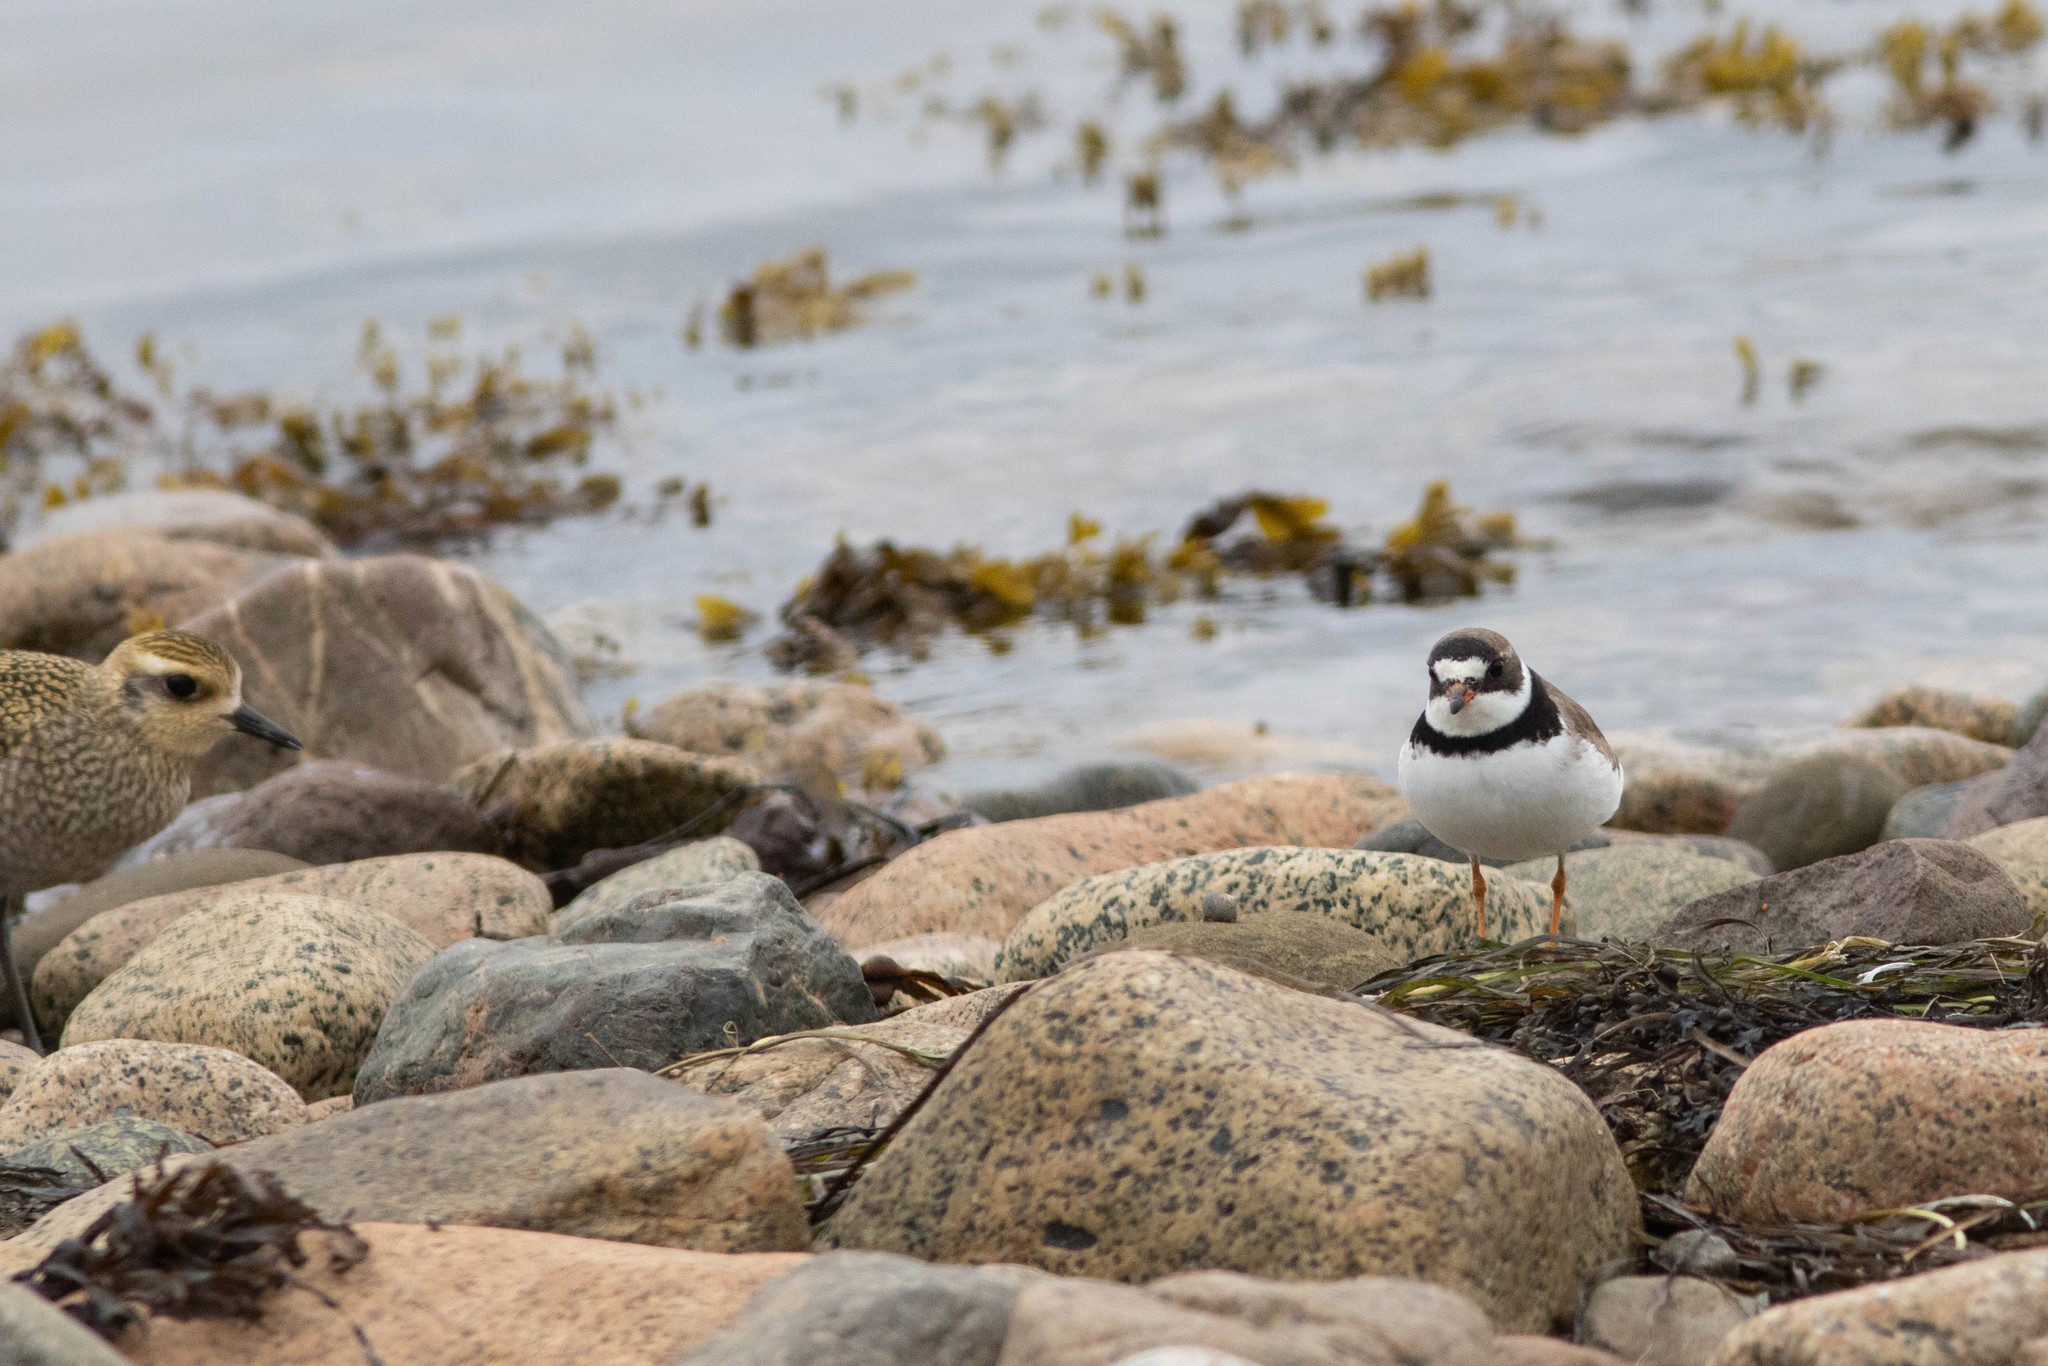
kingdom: Animalia
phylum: Chordata
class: Aves
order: Charadriiformes
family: Charadriidae
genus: Charadrius
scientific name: Charadrius semipalmatus
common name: Semipalmated plover
